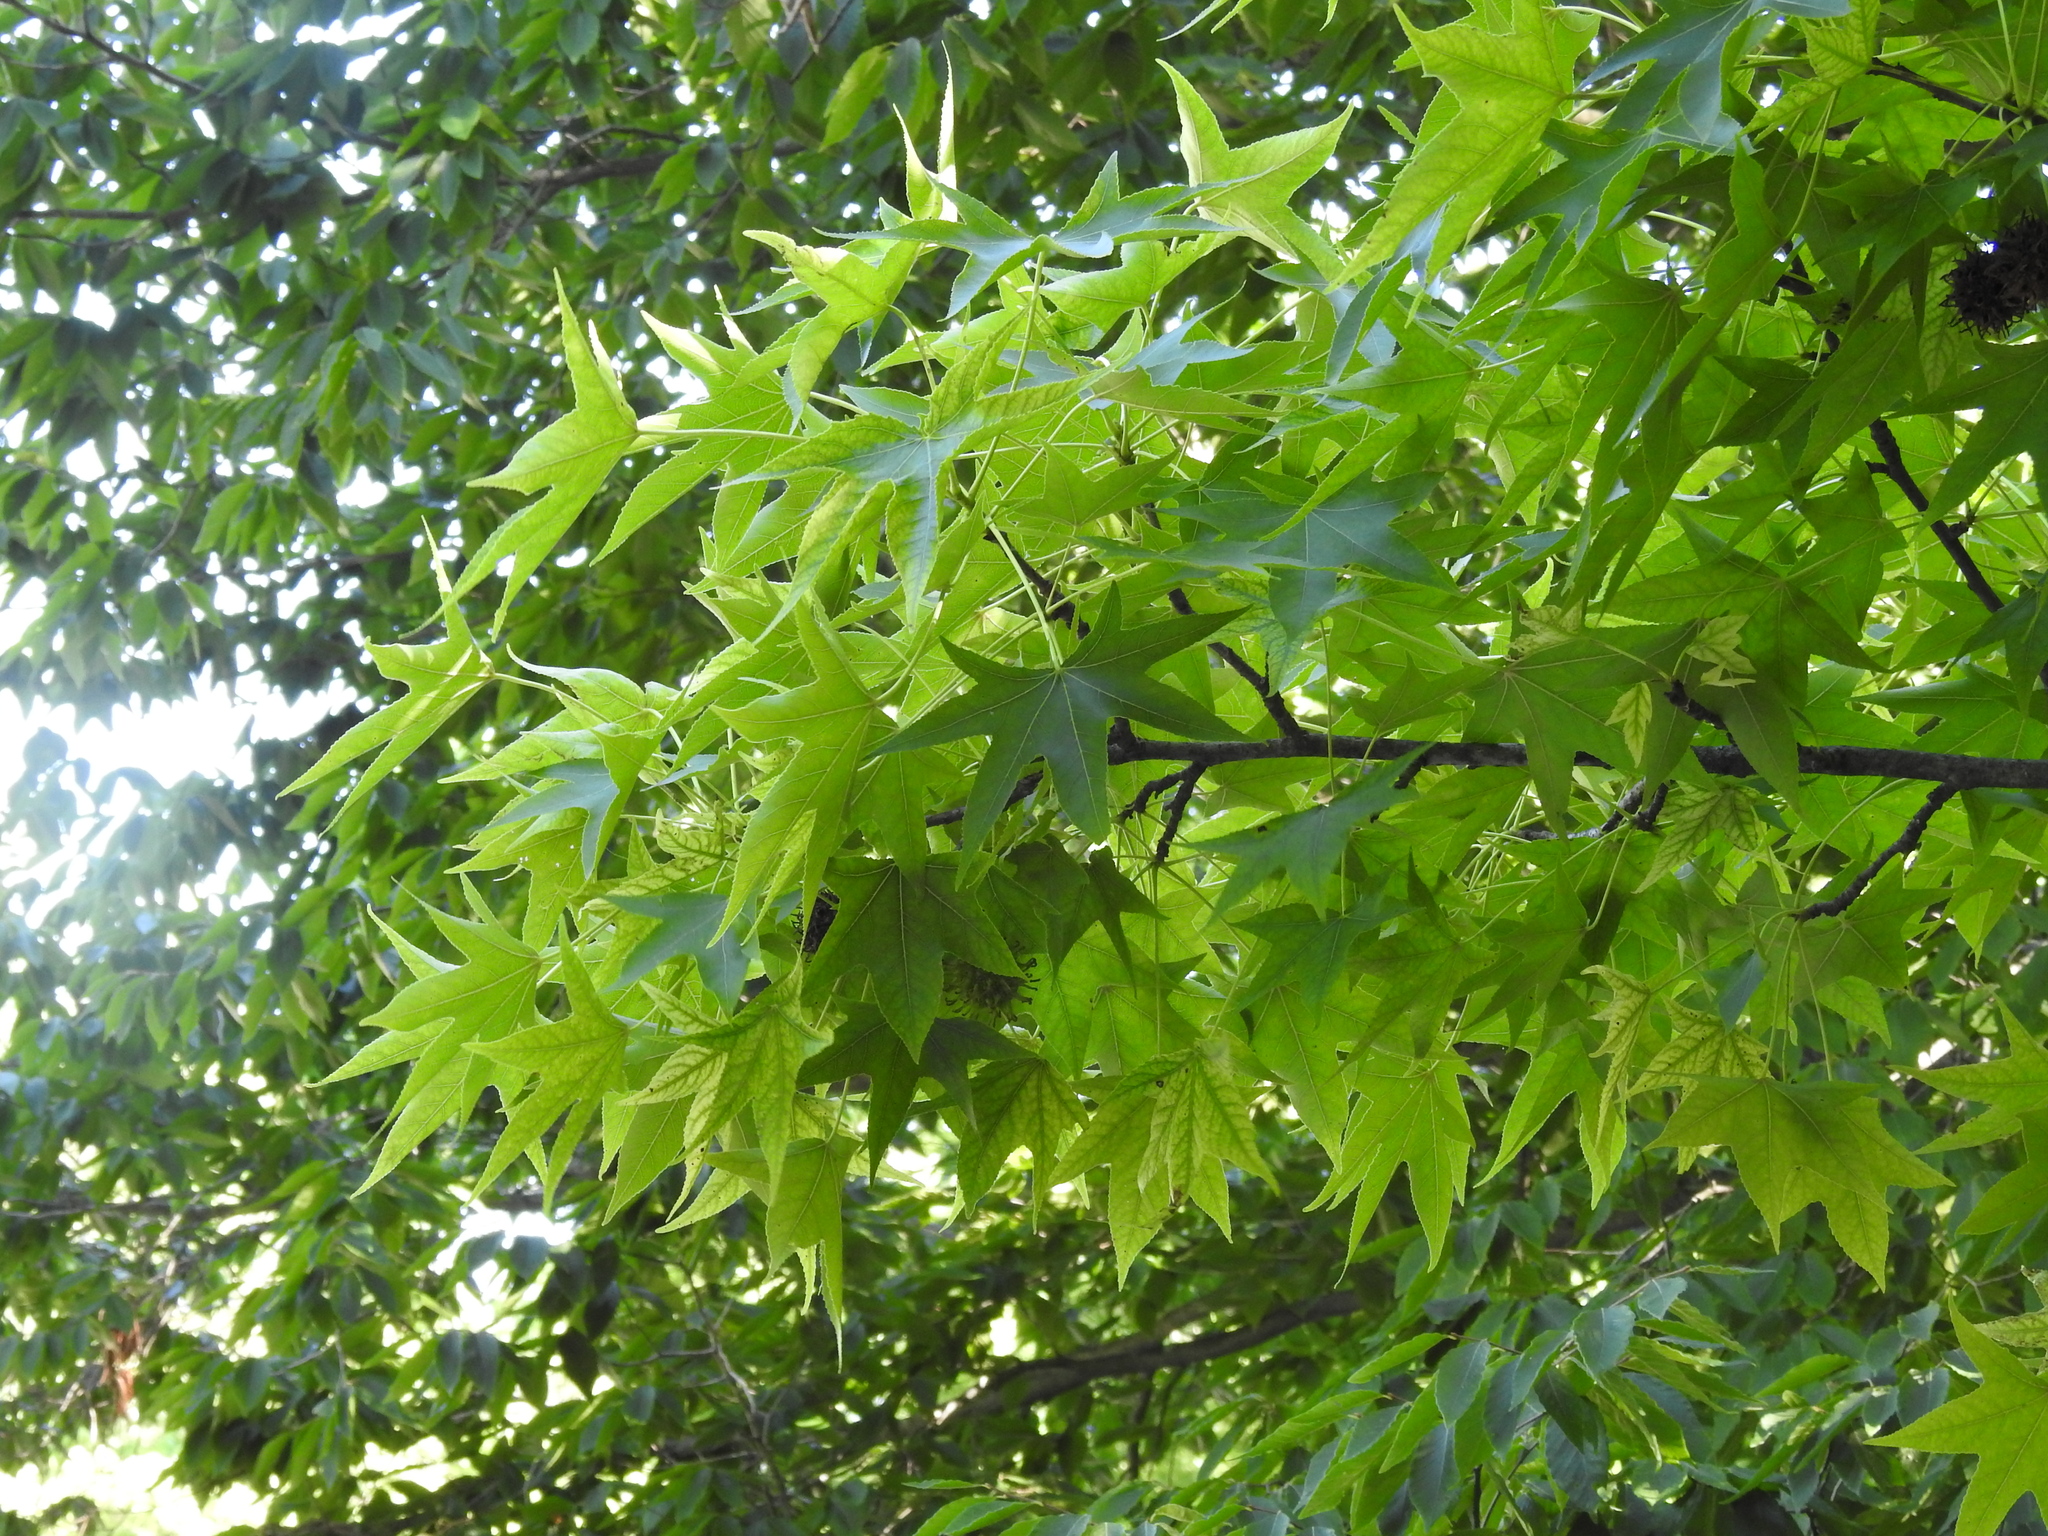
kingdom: Plantae
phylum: Tracheophyta
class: Magnoliopsida
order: Saxifragales
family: Altingiaceae
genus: Liquidambar
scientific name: Liquidambar styraciflua
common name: Sweet gum
